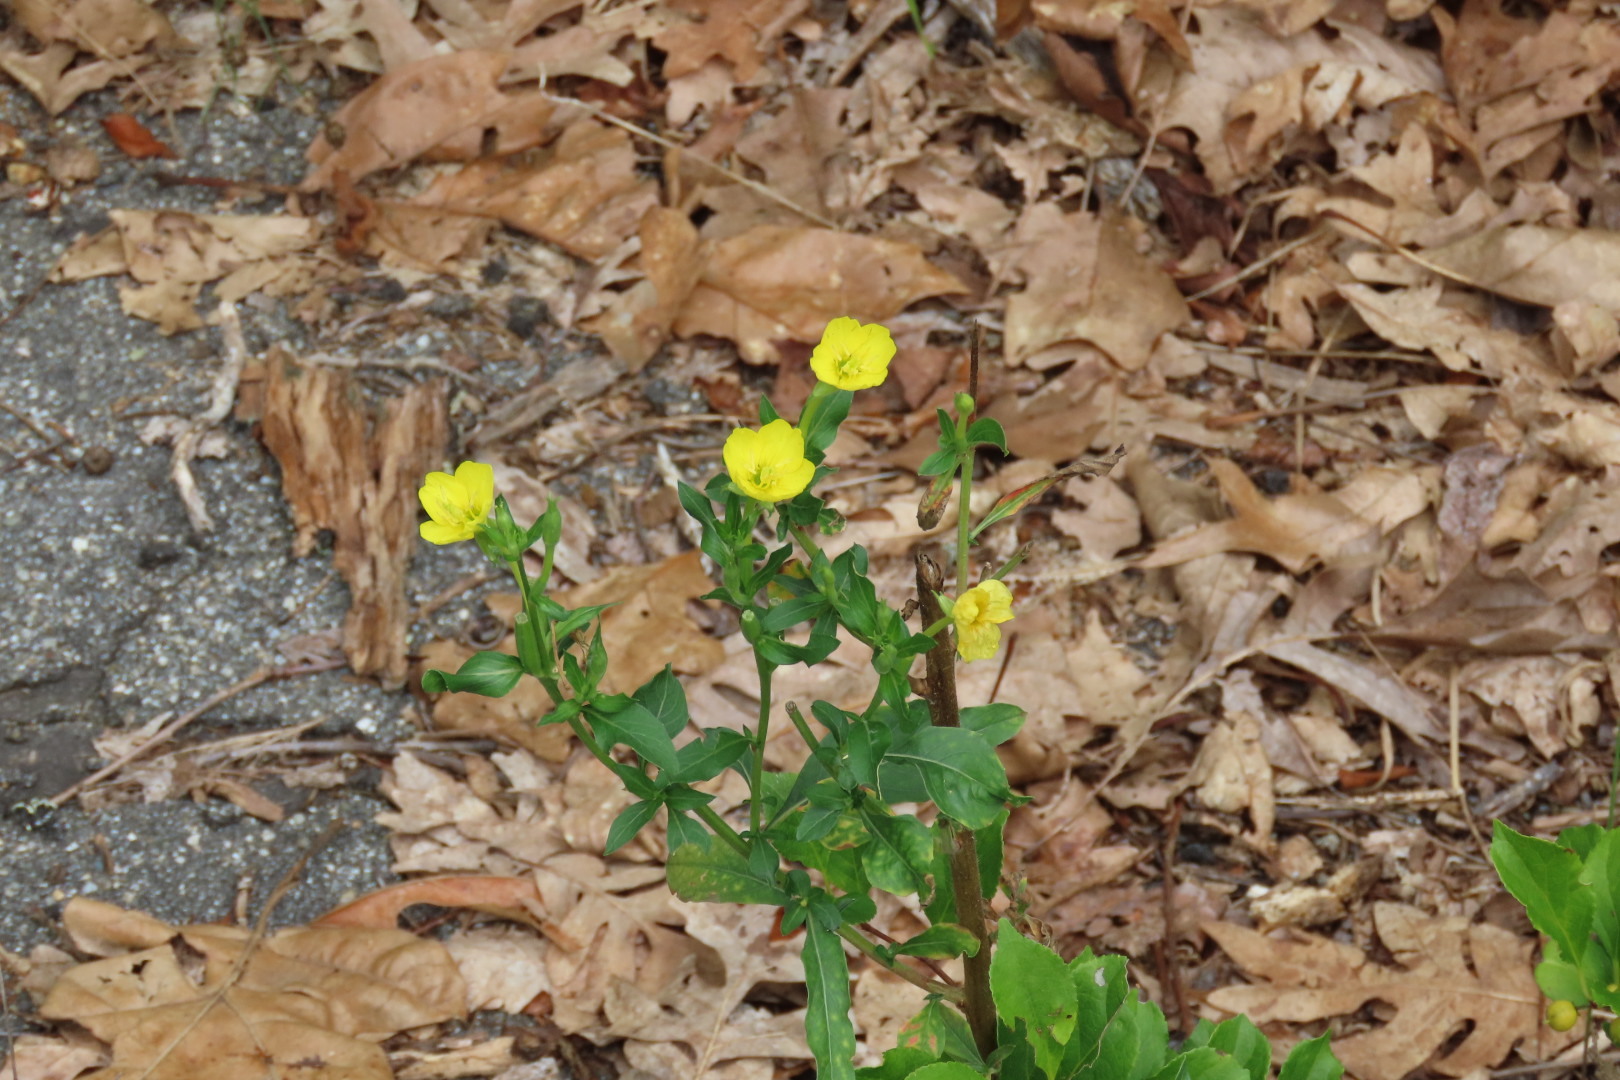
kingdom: Plantae
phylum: Tracheophyta
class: Magnoliopsida
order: Myrtales
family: Onagraceae
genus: Oenothera
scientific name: Oenothera biennis
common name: Common evening-primrose
